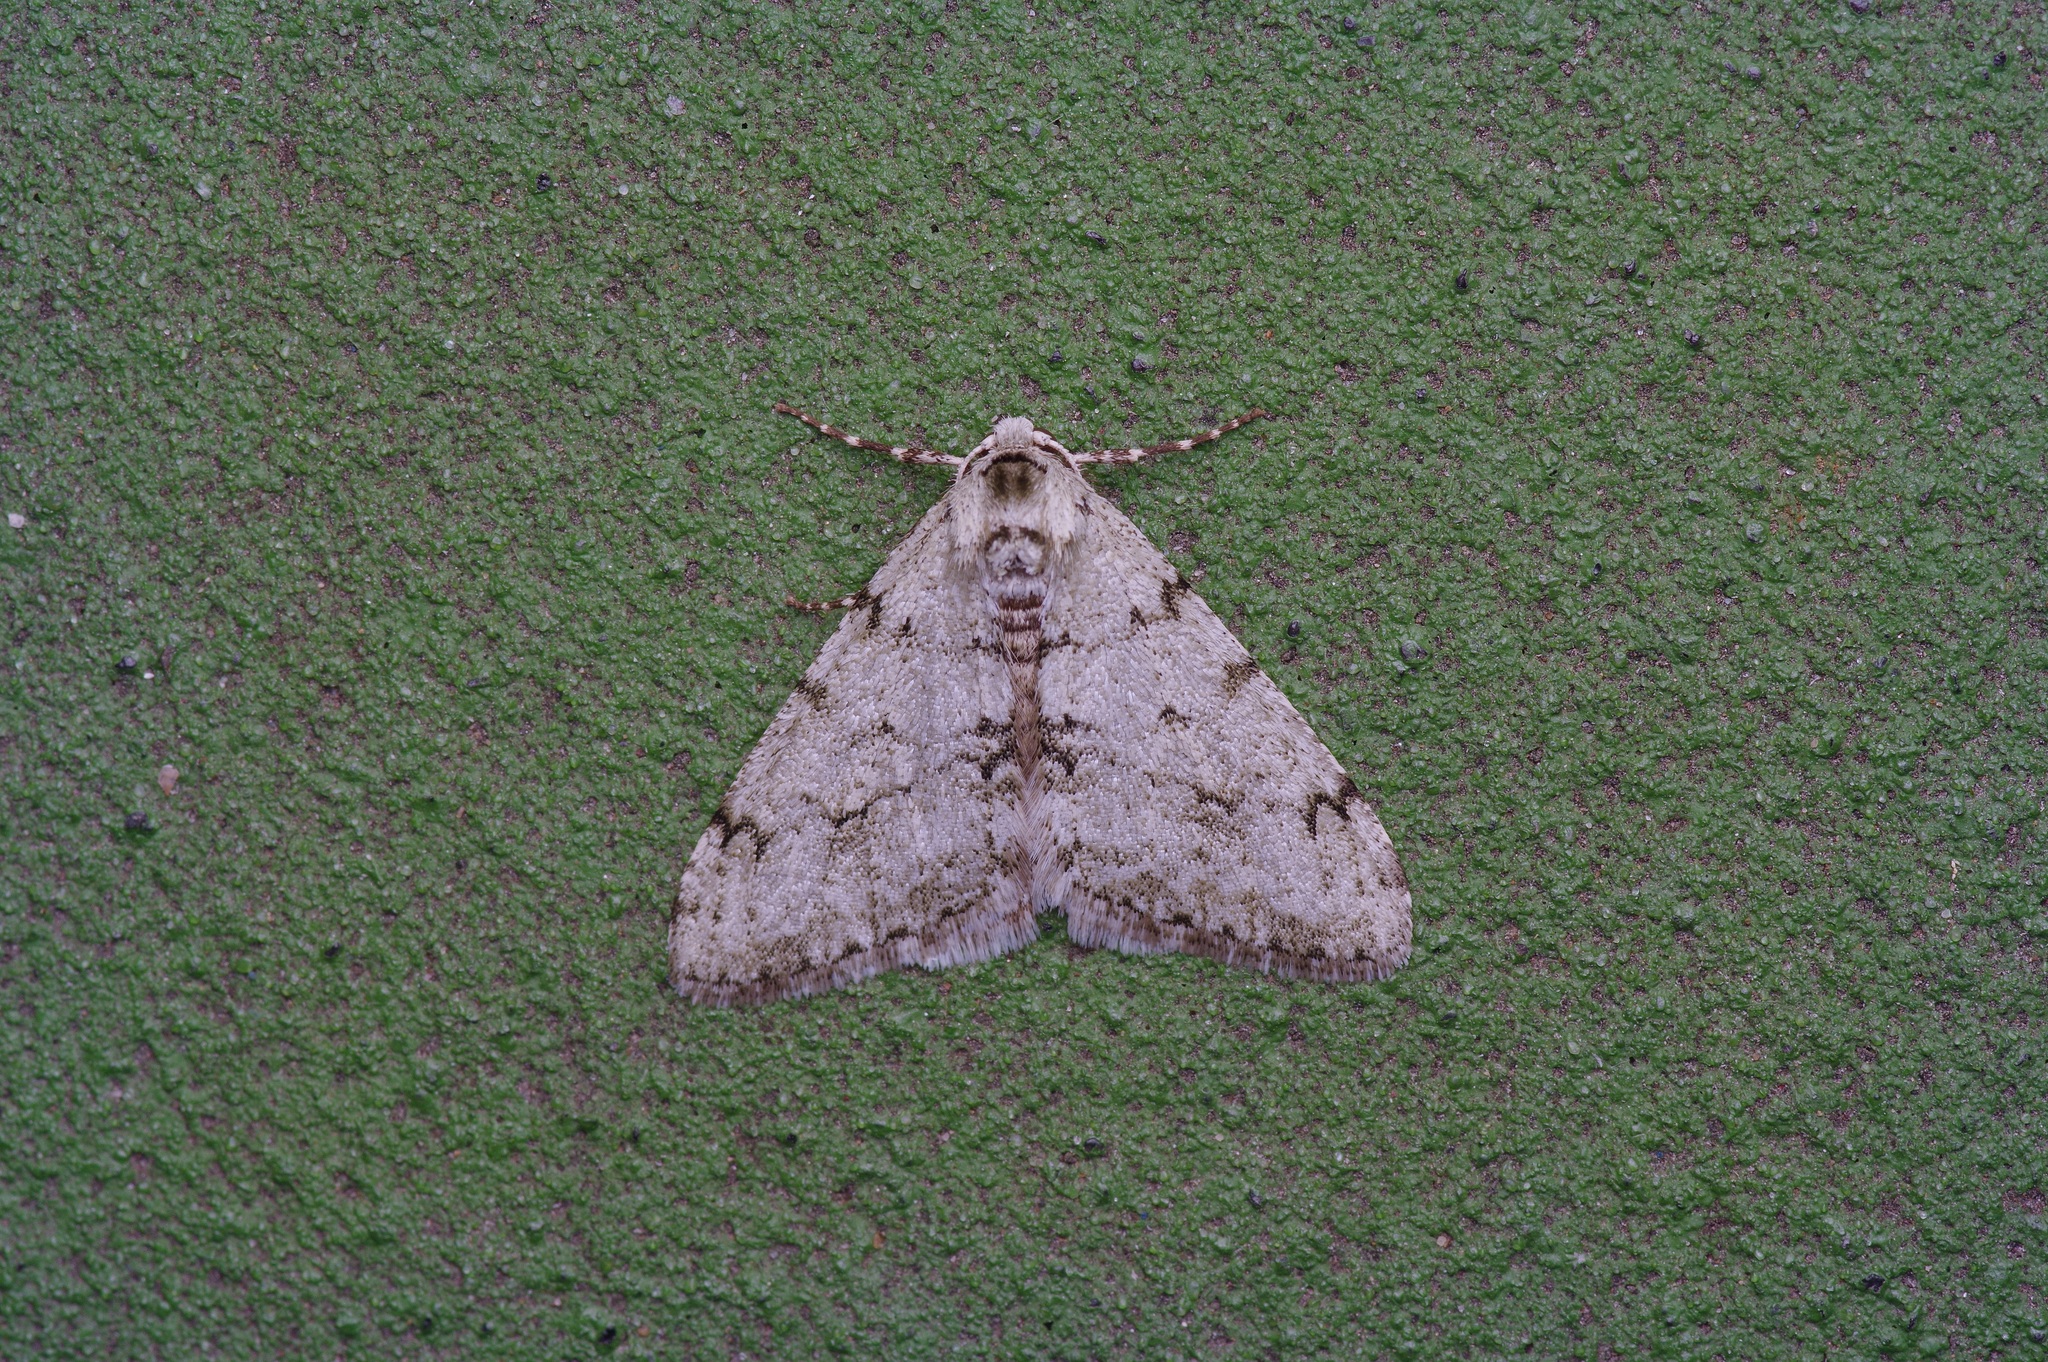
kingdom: Animalia
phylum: Arthropoda
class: Insecta
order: Lepidoptera
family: Geometridae
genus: Phigalia
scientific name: Phigalia strigataria
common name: Small phigalia
